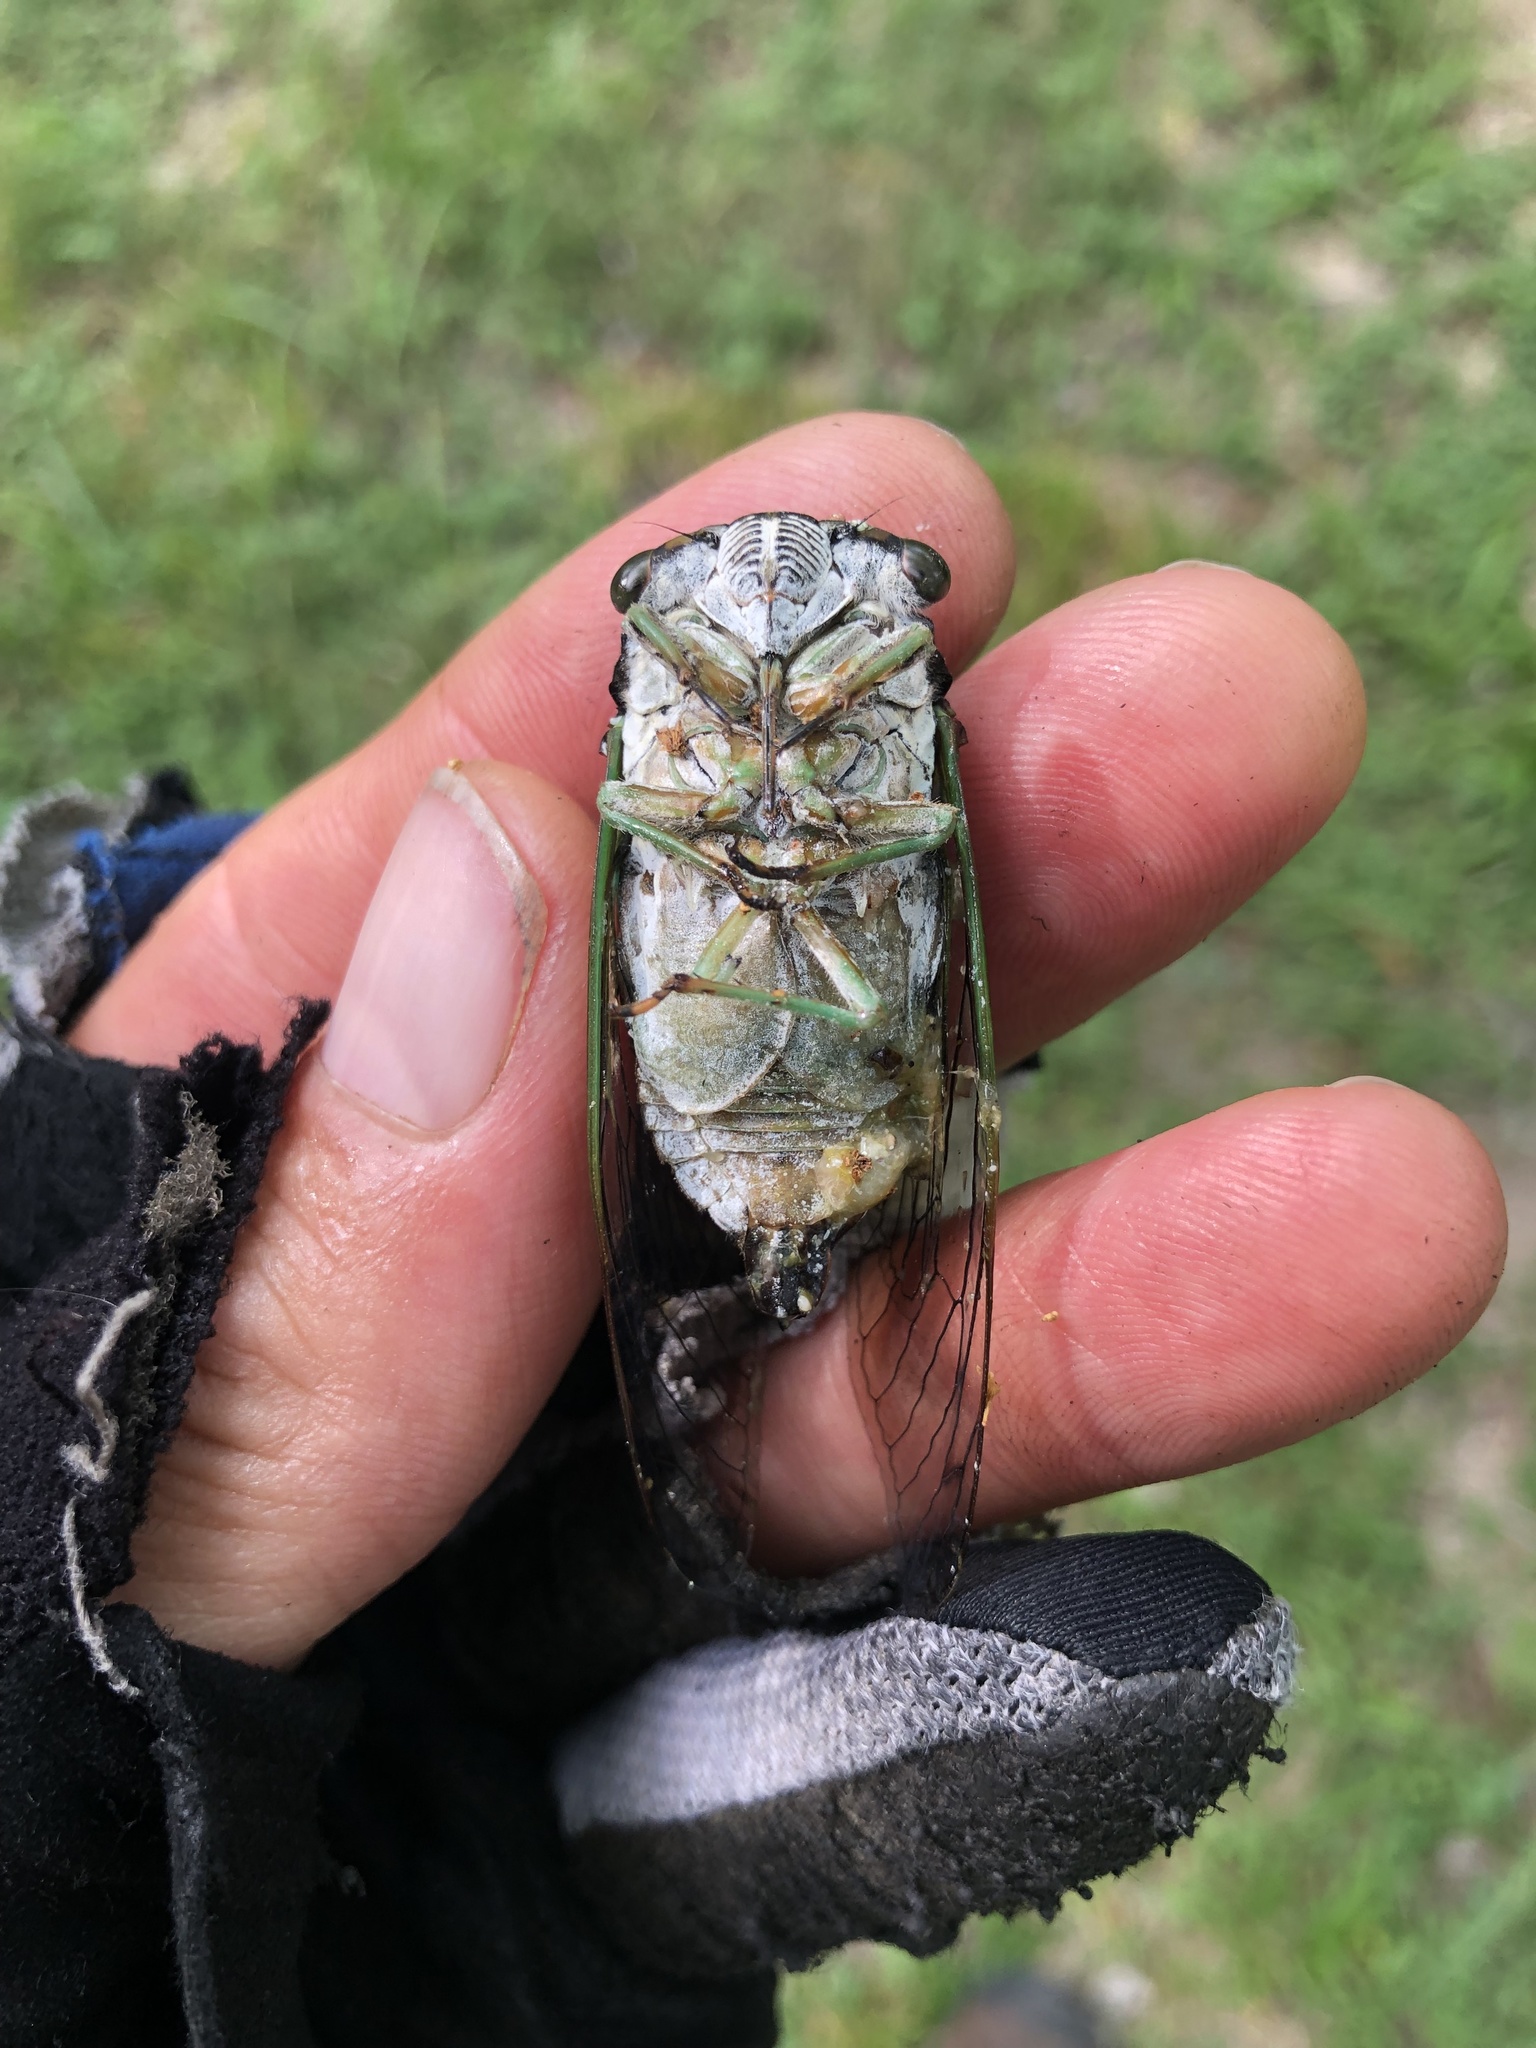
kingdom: Animalia
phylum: Arthropoda
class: Insecta
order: Hemiptera
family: Cicadidae
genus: Neotibicen
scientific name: Neotibicen tibicen
